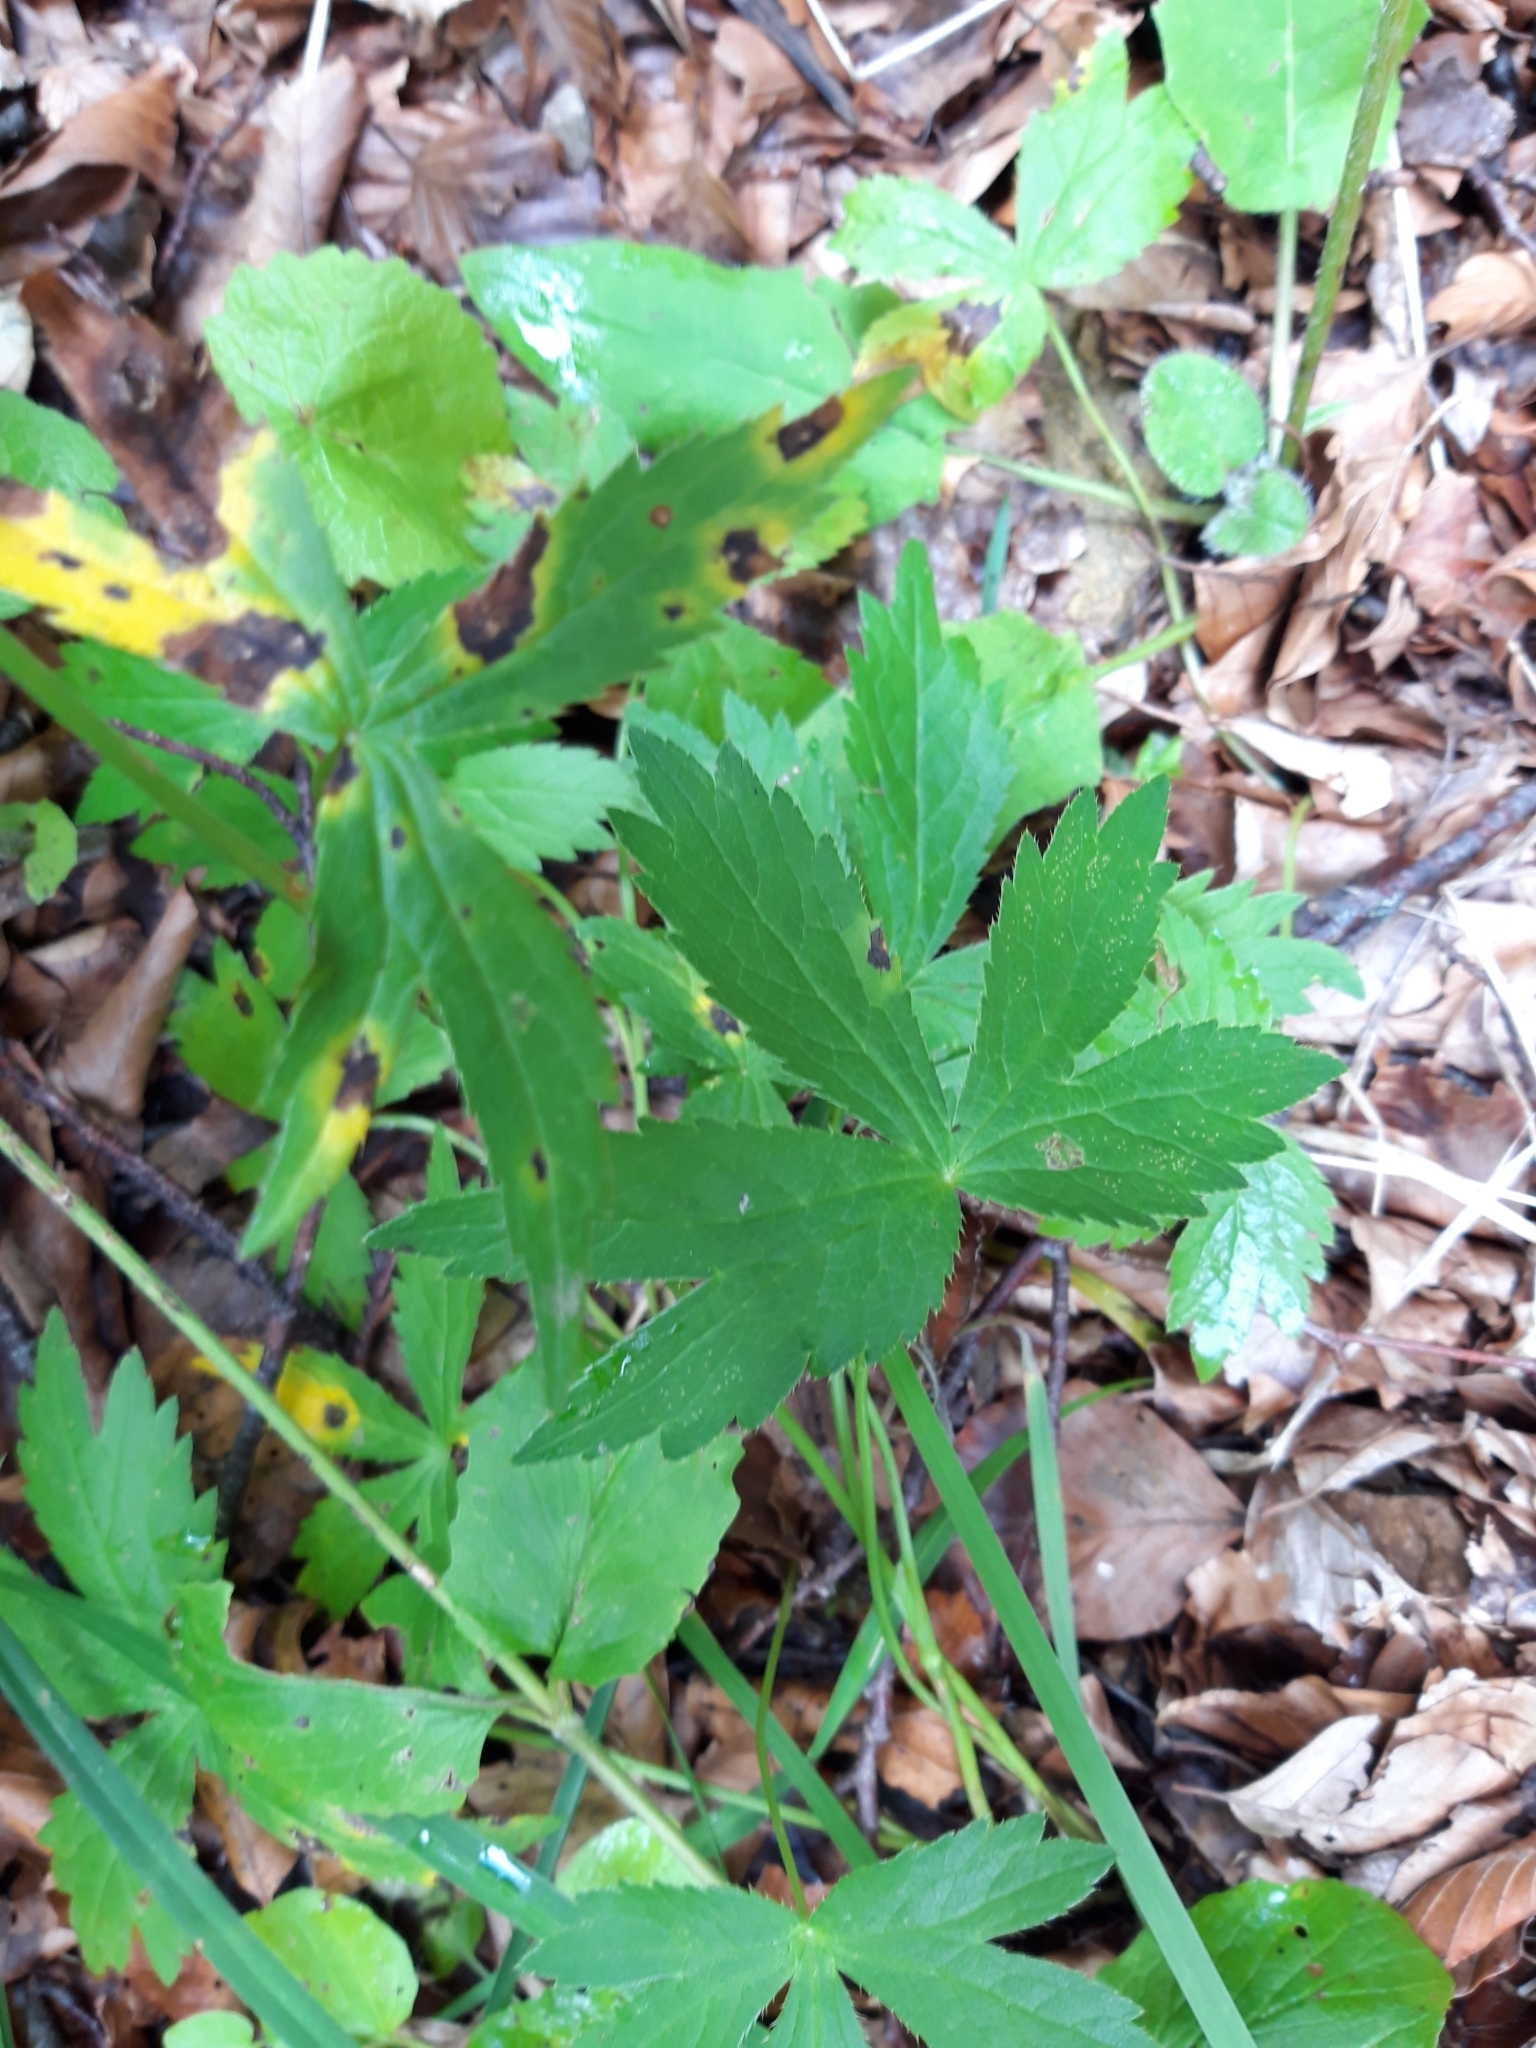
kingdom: Plantae
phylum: Tracheophyta
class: Magnoliopsida
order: Apiales
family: Apiaceae
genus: Astrantia
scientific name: Astrantia major
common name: Greater masterwort
